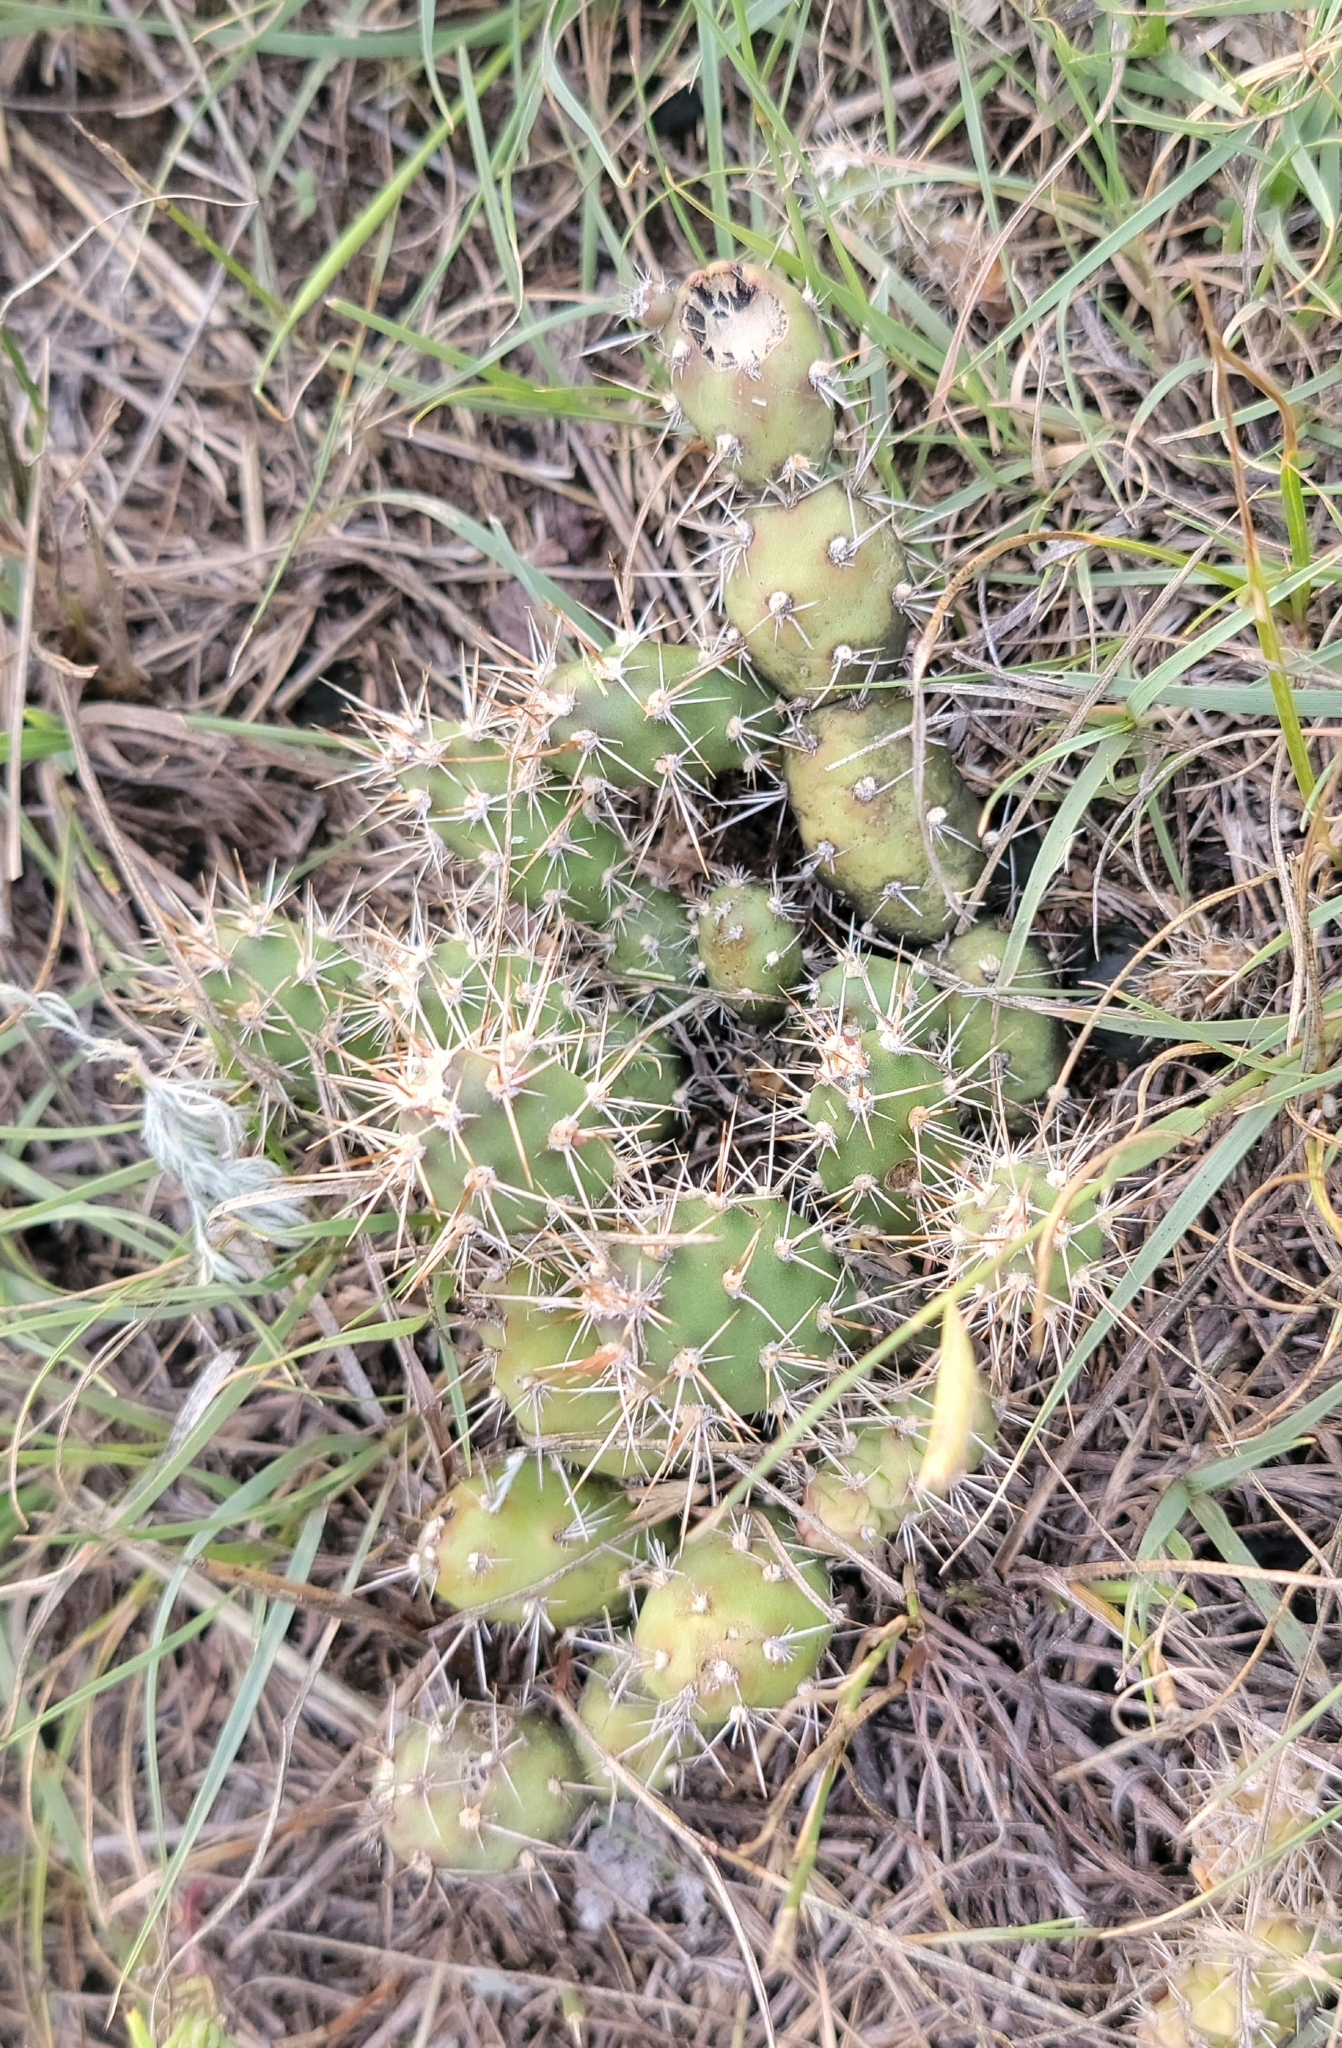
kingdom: Plantae
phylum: Tracheophyta
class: Magnoliopsida
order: Caryophyllales
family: Cactaceae
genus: Opuntia
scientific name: Opuntia fragilis
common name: Brittle cactus
